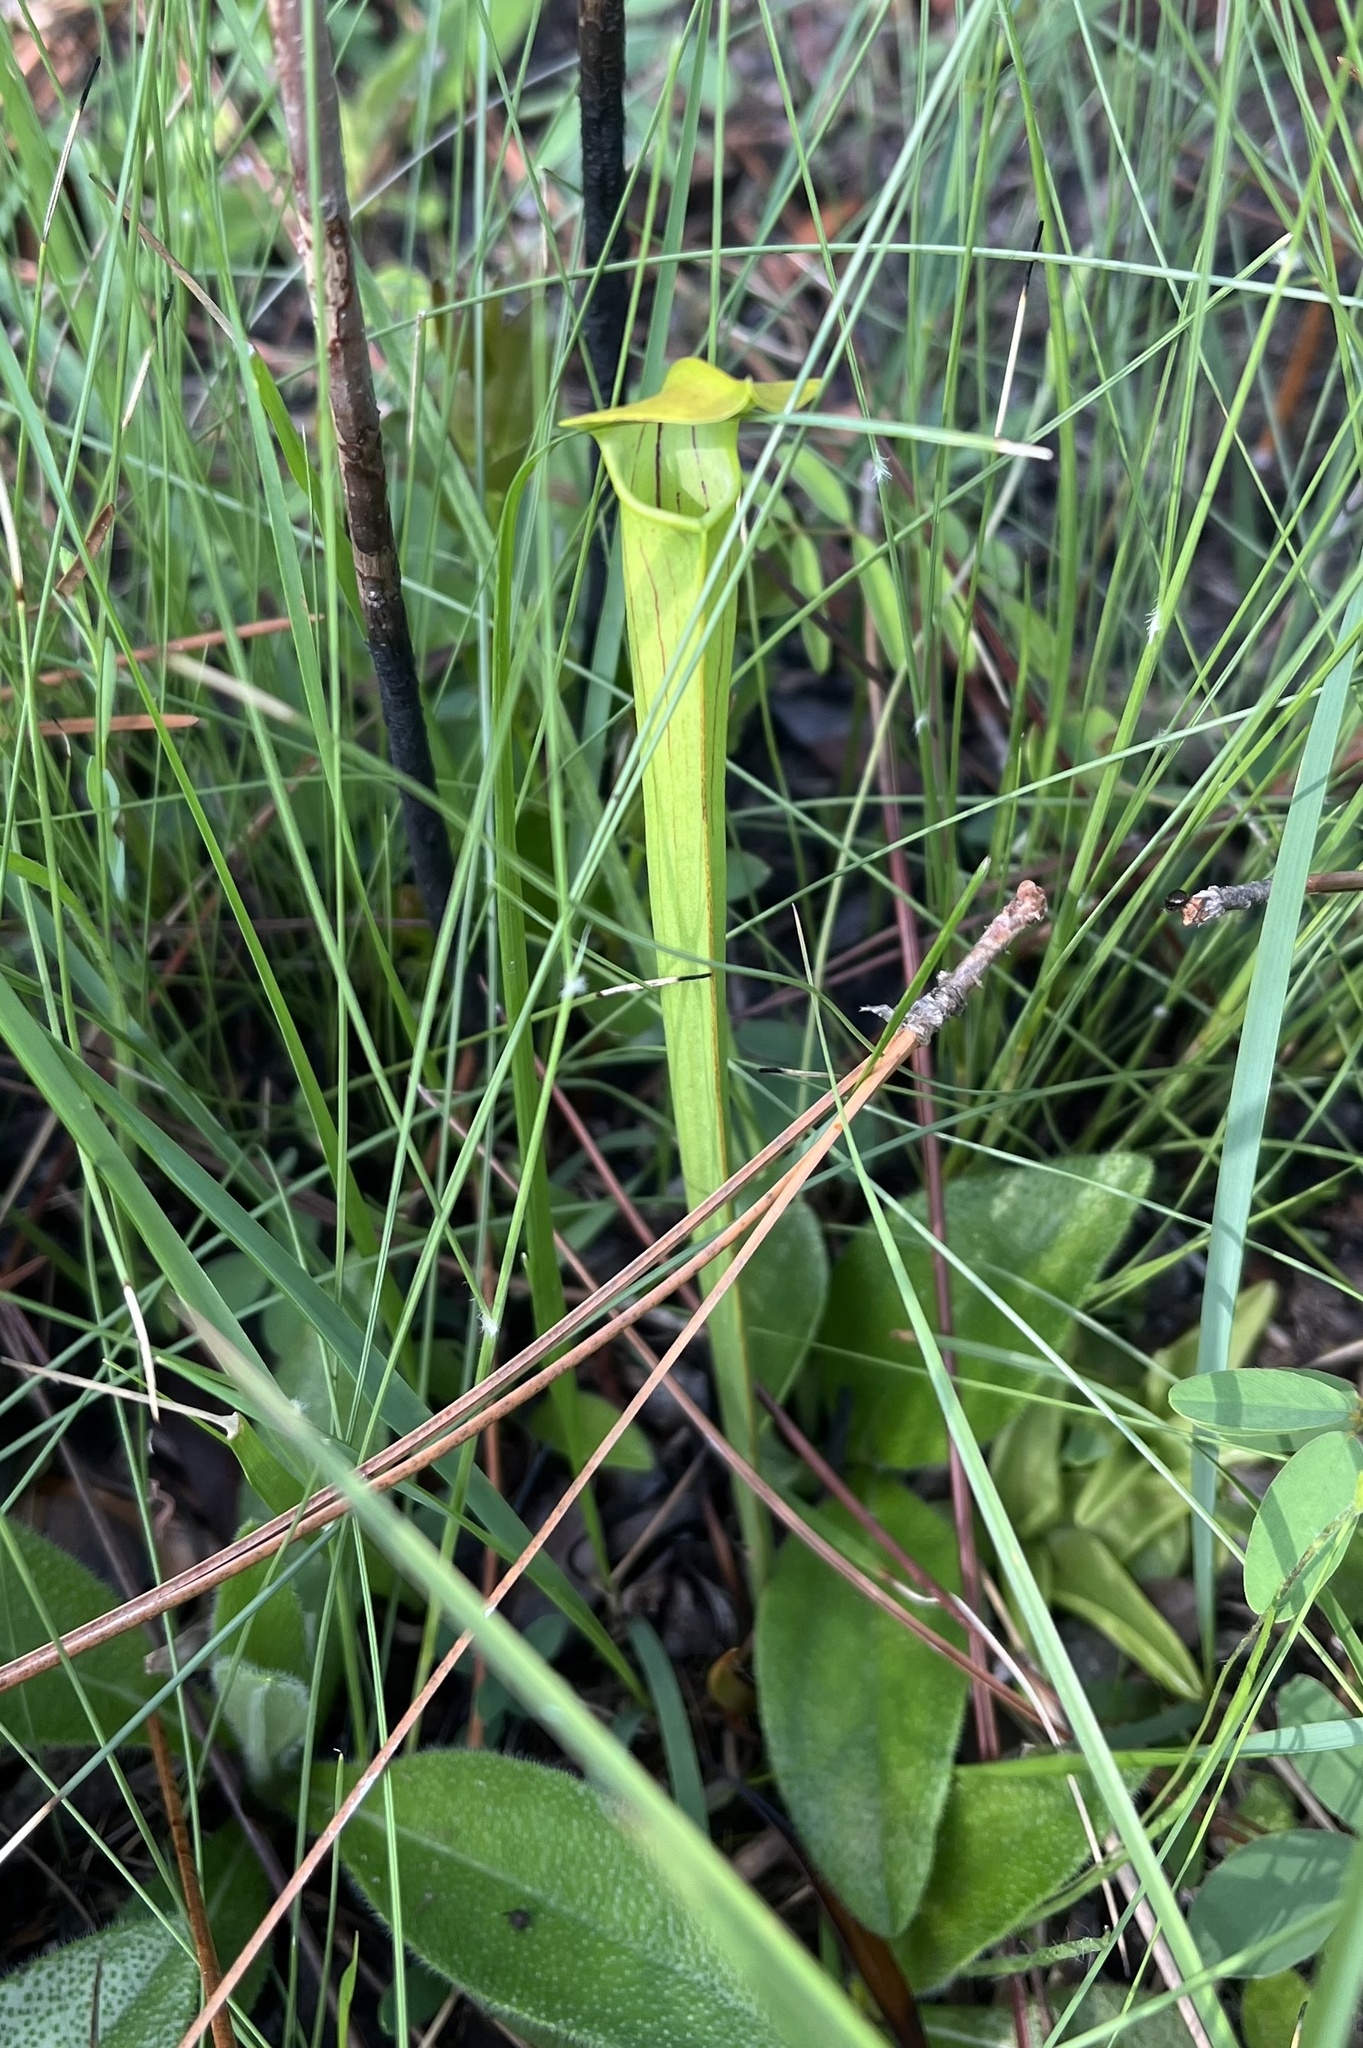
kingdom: Plantae
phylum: Tracheophyta
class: Magnoliopsida
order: Ericales
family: Sarraceniaceae
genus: Sarracenia
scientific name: Sarracenia alata
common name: Yellow trumpets
